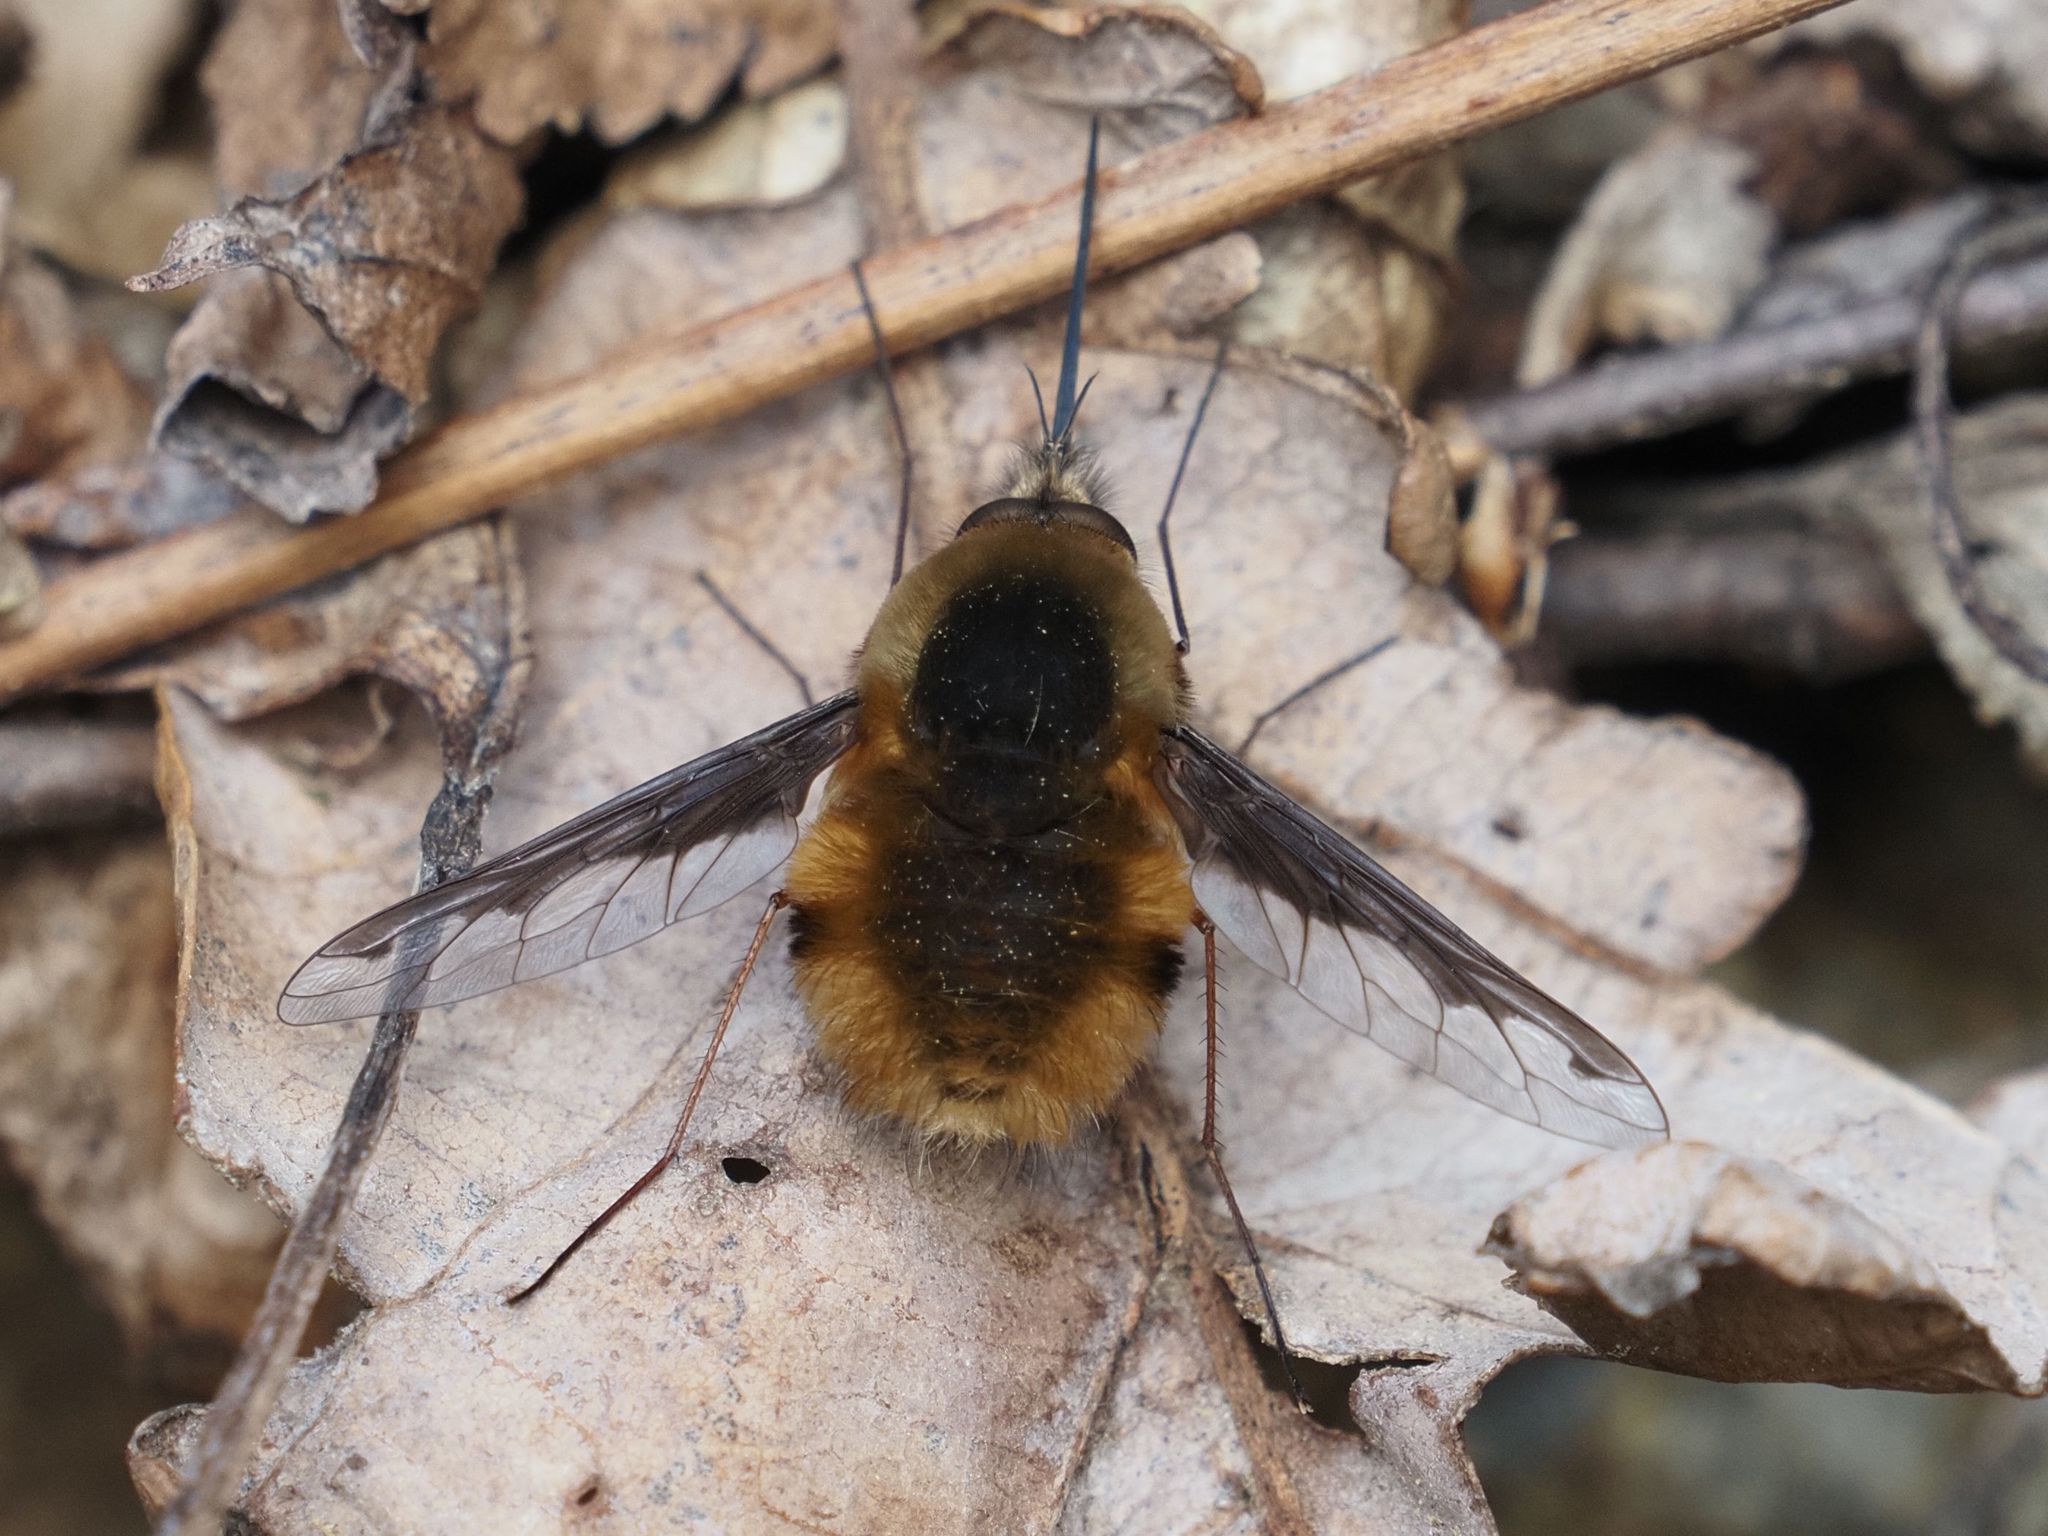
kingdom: Animalia
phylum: Arthropoda
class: Insecta
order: Diptera
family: Bombyliidae
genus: Bombylius
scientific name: Bombylius major
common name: Bee fly
